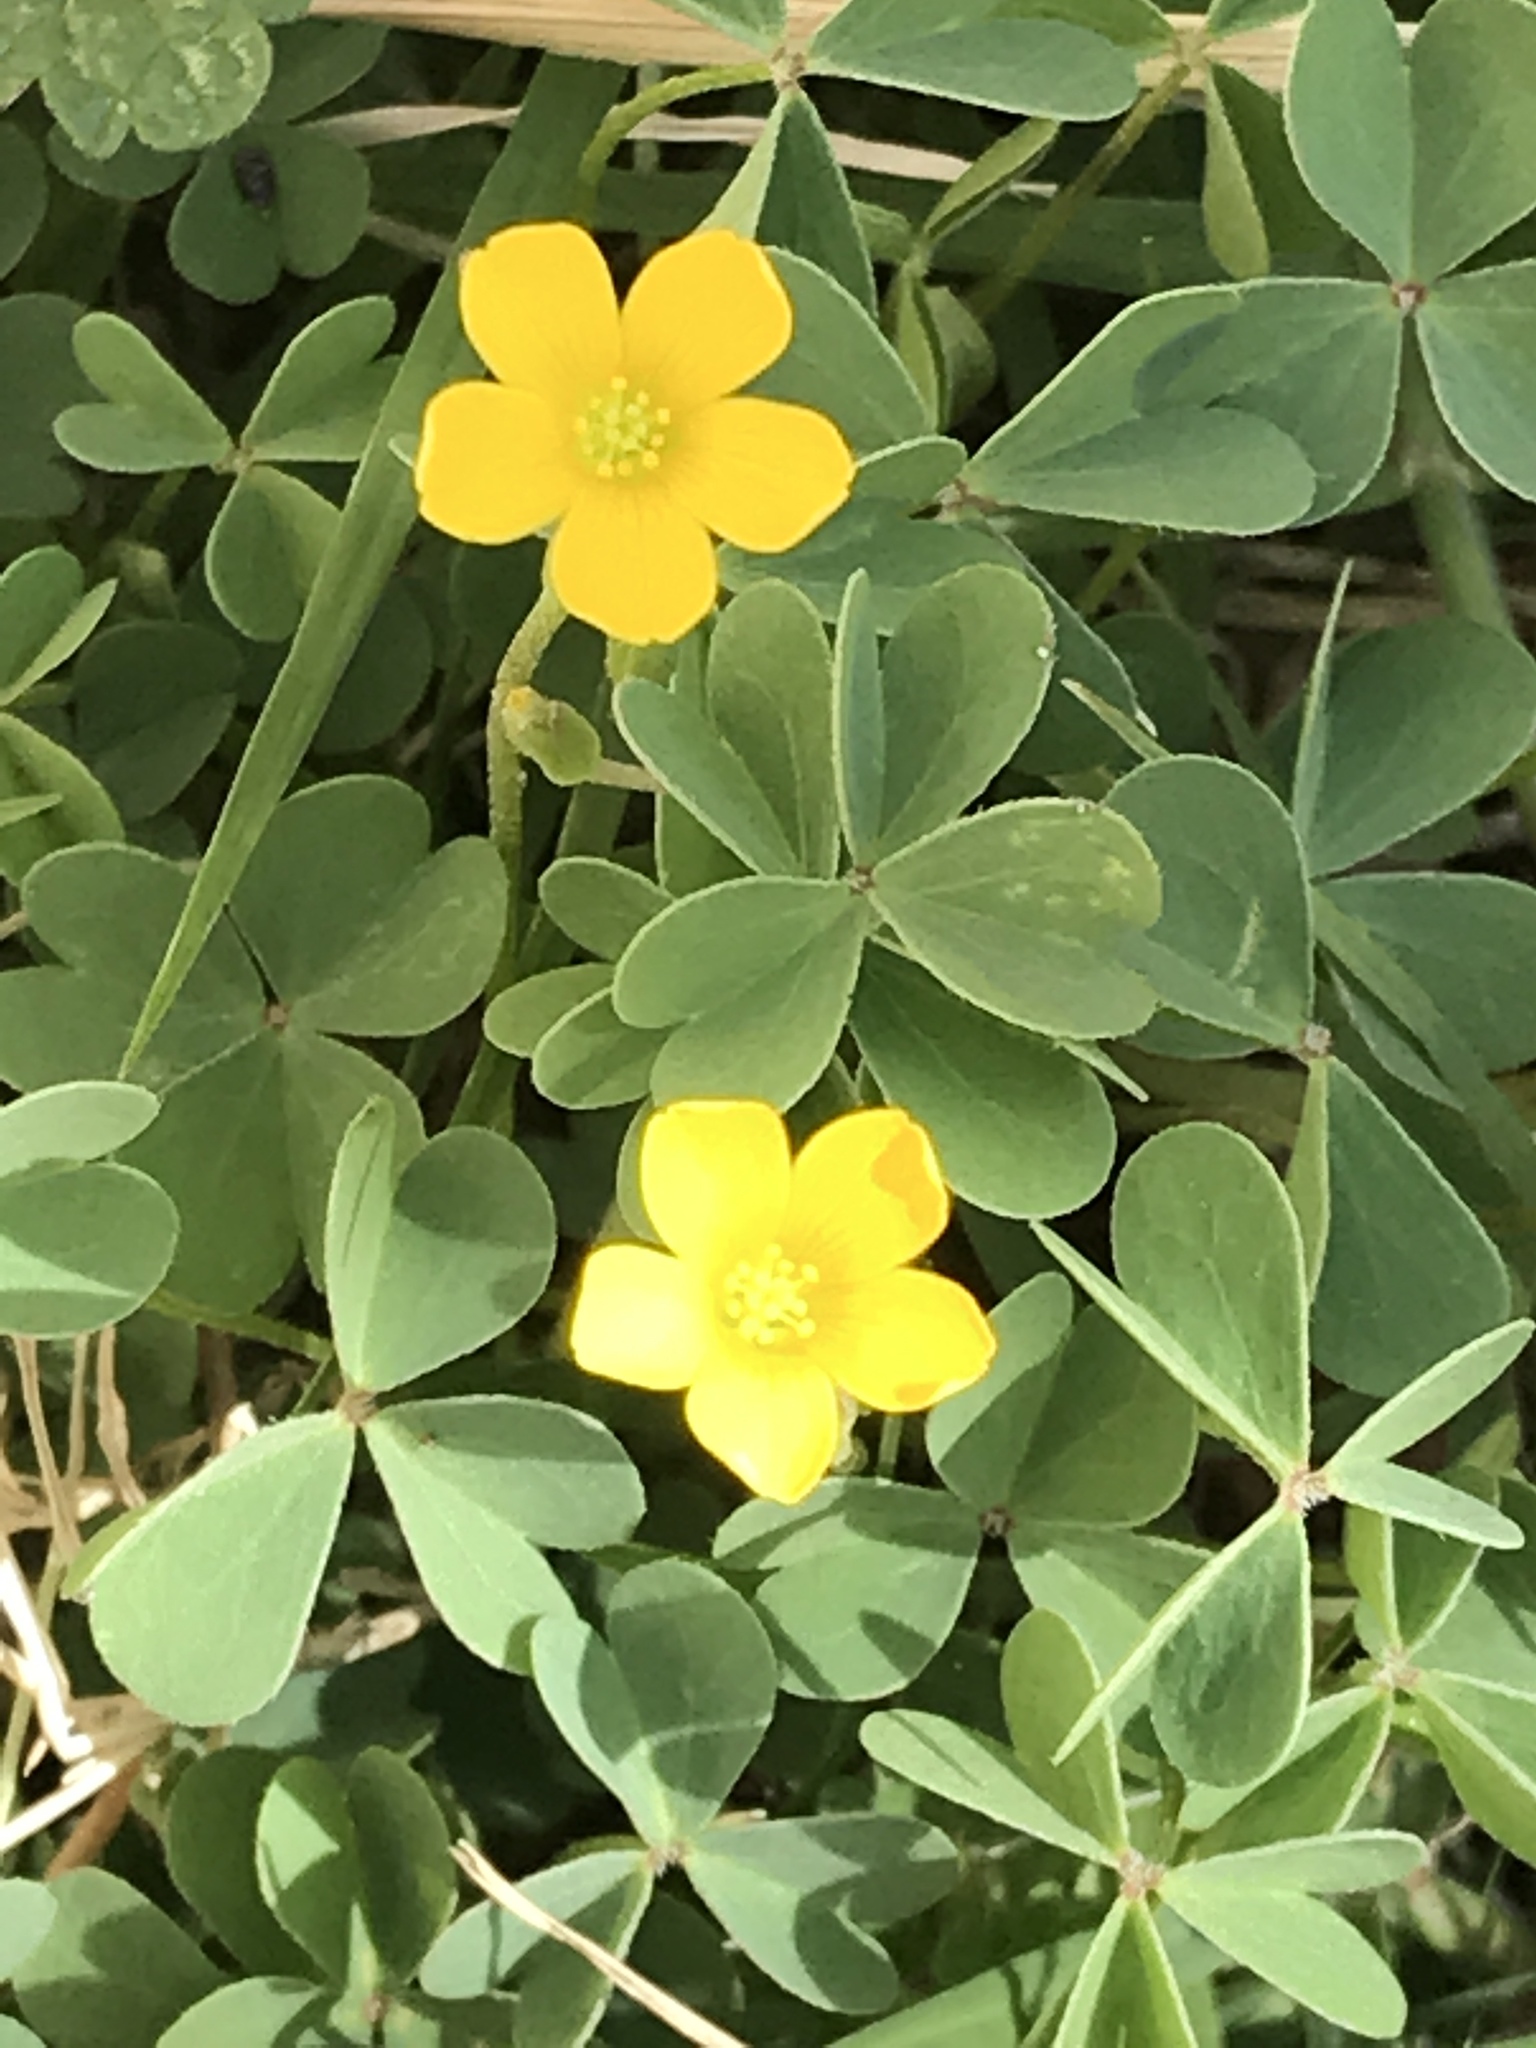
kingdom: Plantae
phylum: Tracheophyta
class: Magnoliopsida
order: Oxalidales
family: Oxalidaceae
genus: Oxalis
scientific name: Oxalis
